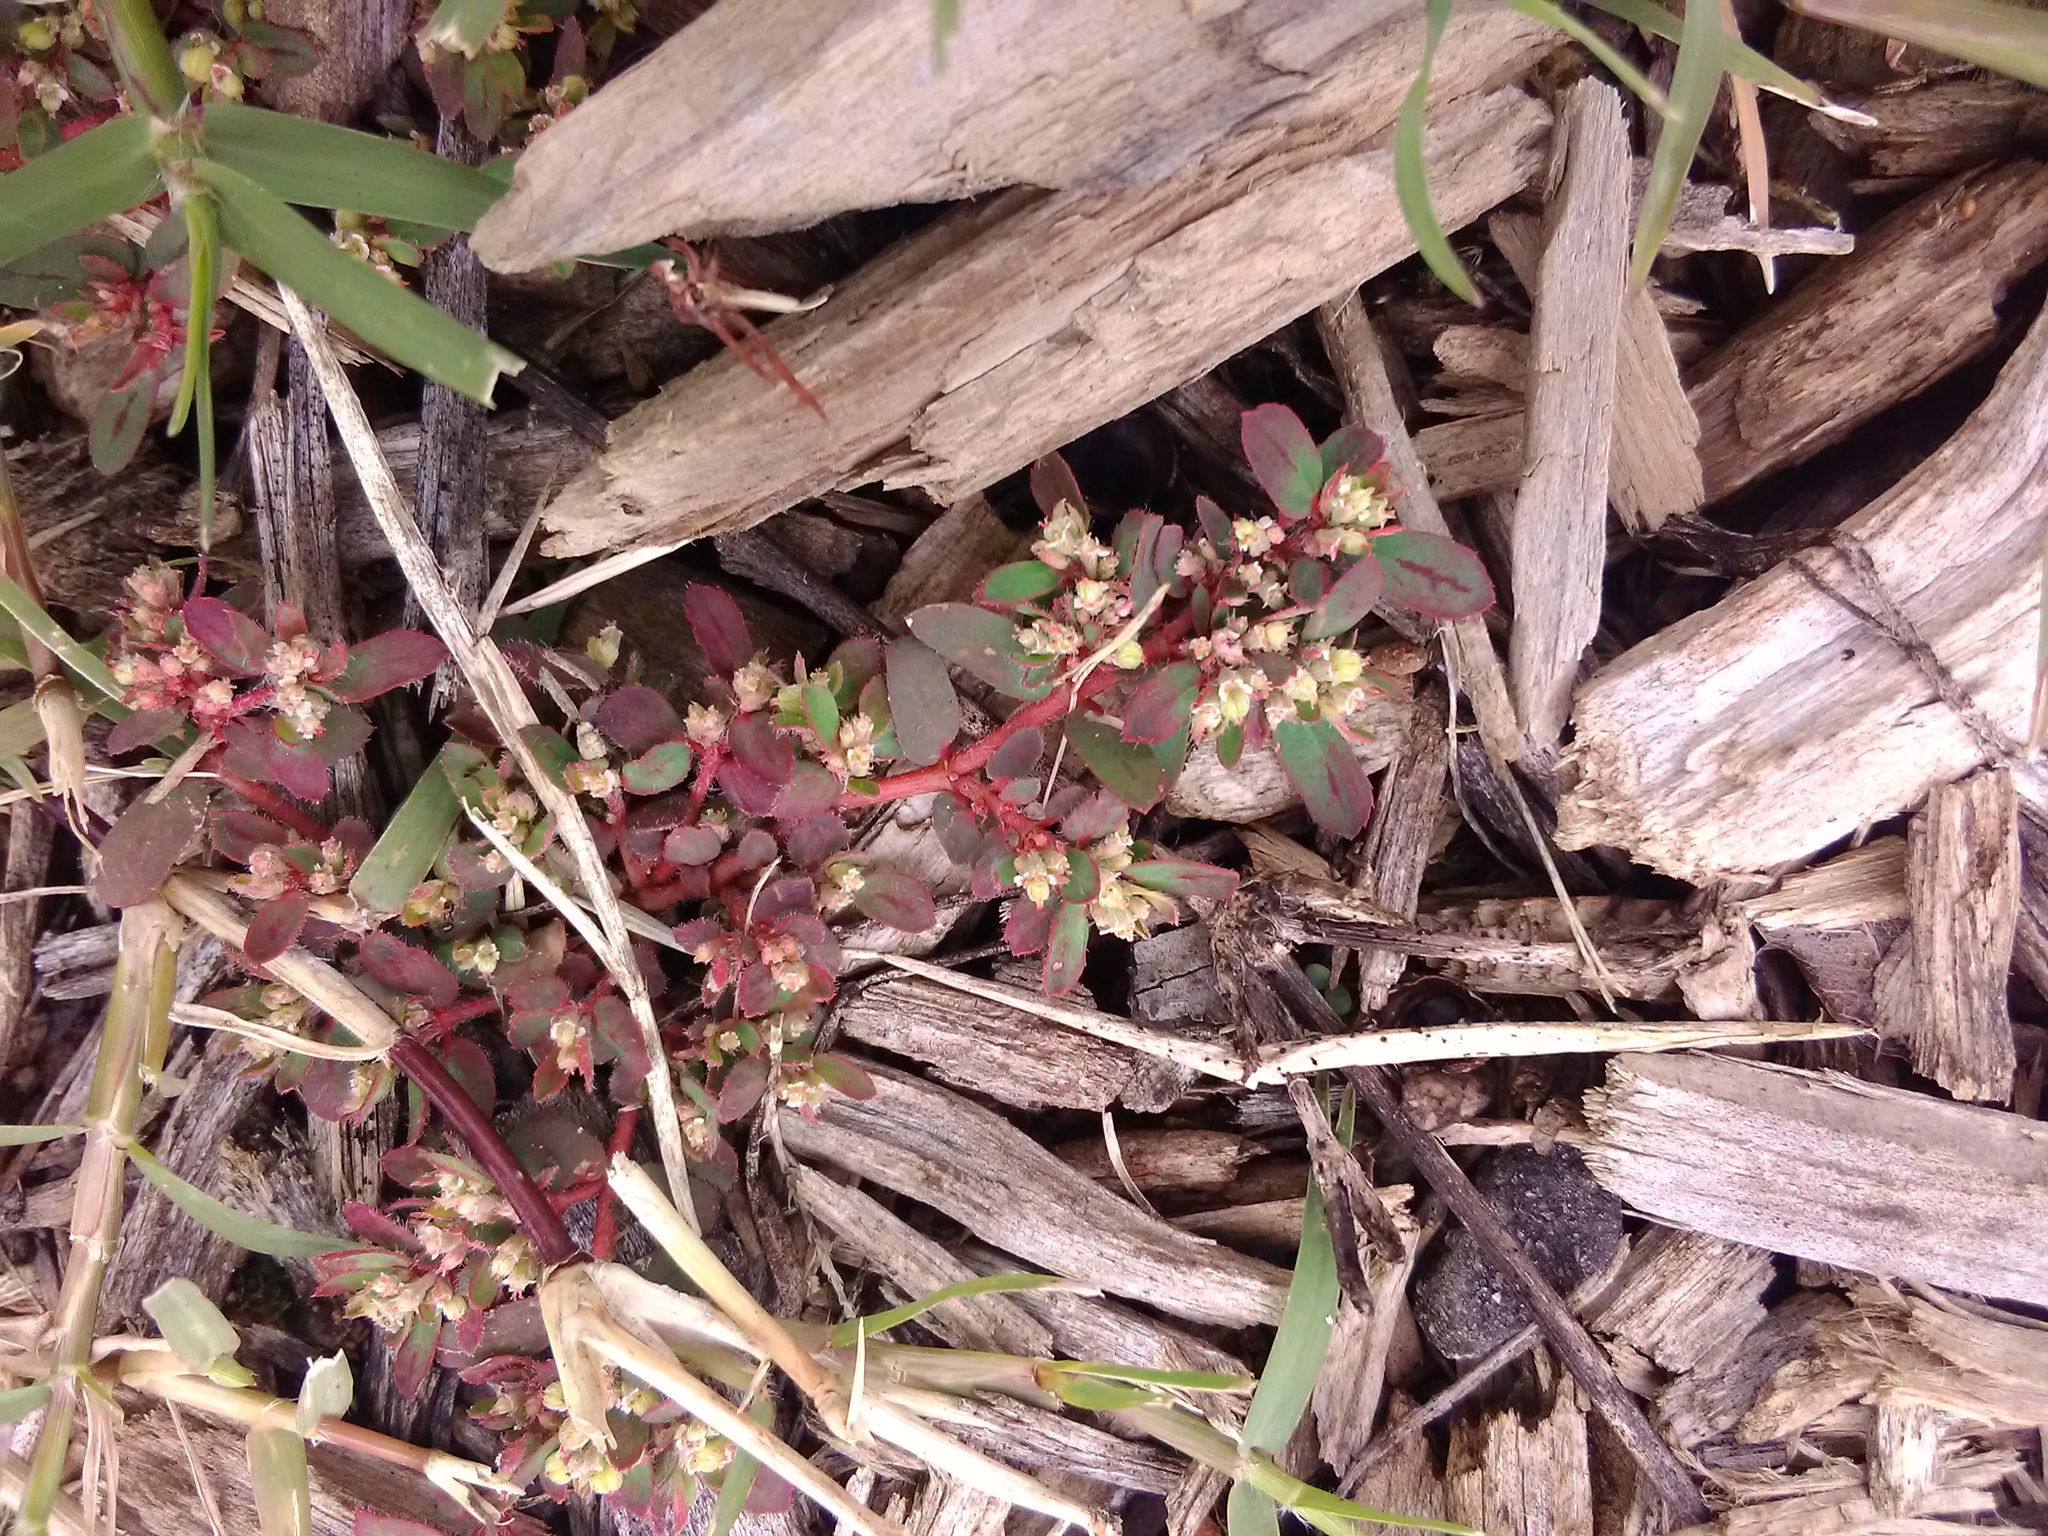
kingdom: Plantae
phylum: Tracheophyta
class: Magnoliopsida
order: Malpighiales
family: Euphorbiaceae
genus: Euphorbia
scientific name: Euphorbia maculata
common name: Spotted spurge
